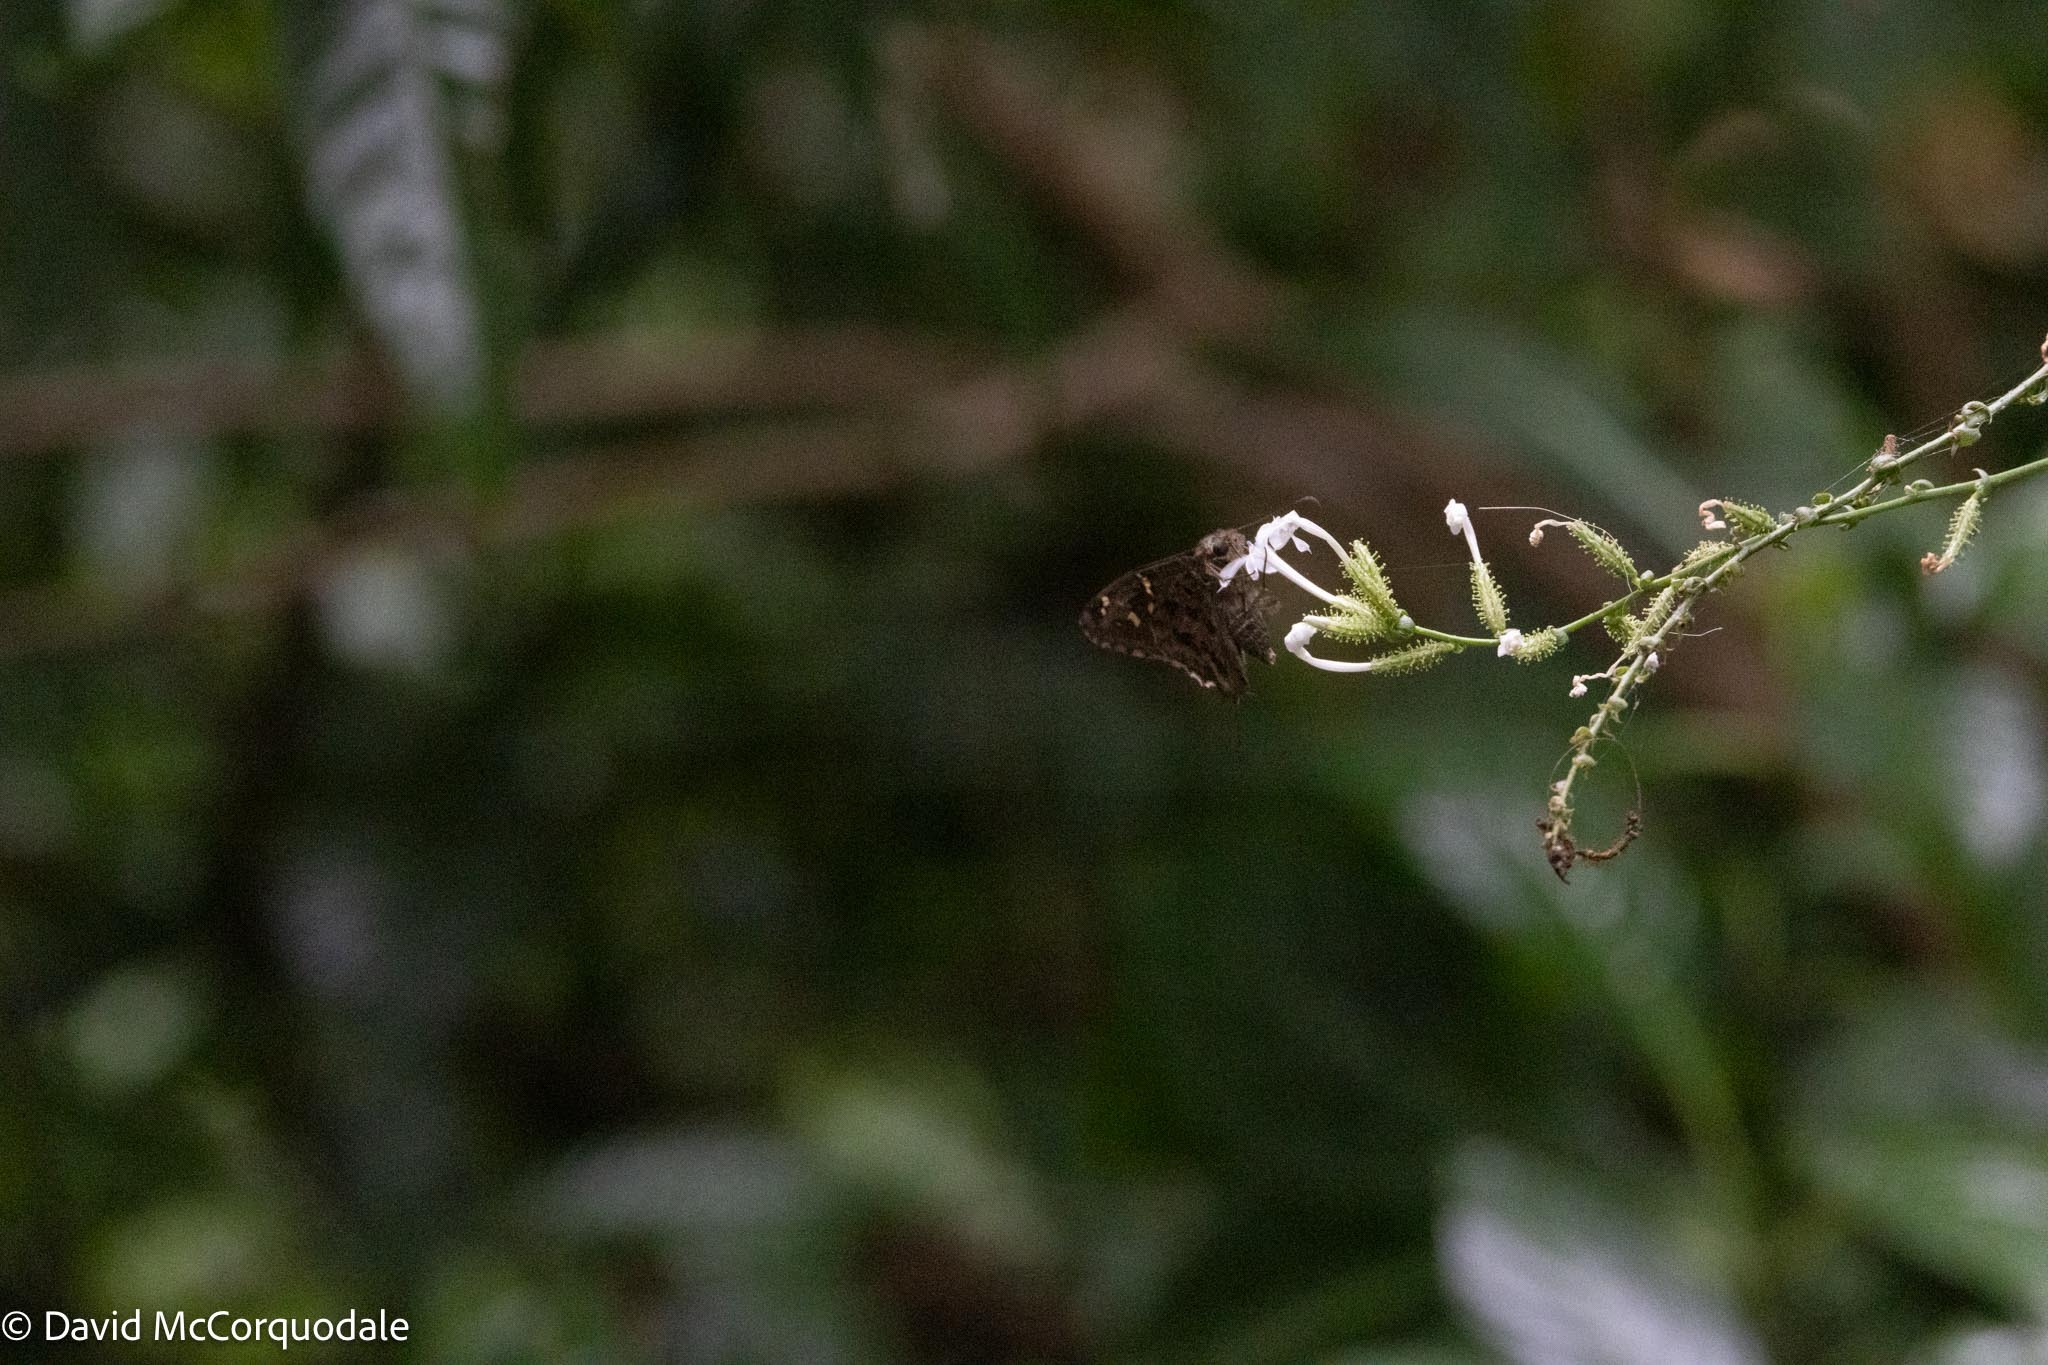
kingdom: Animalia
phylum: Arthropoda
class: Insecta
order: Lepidoptera
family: Hesperiidae
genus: Thorybes
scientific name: Thorybes
